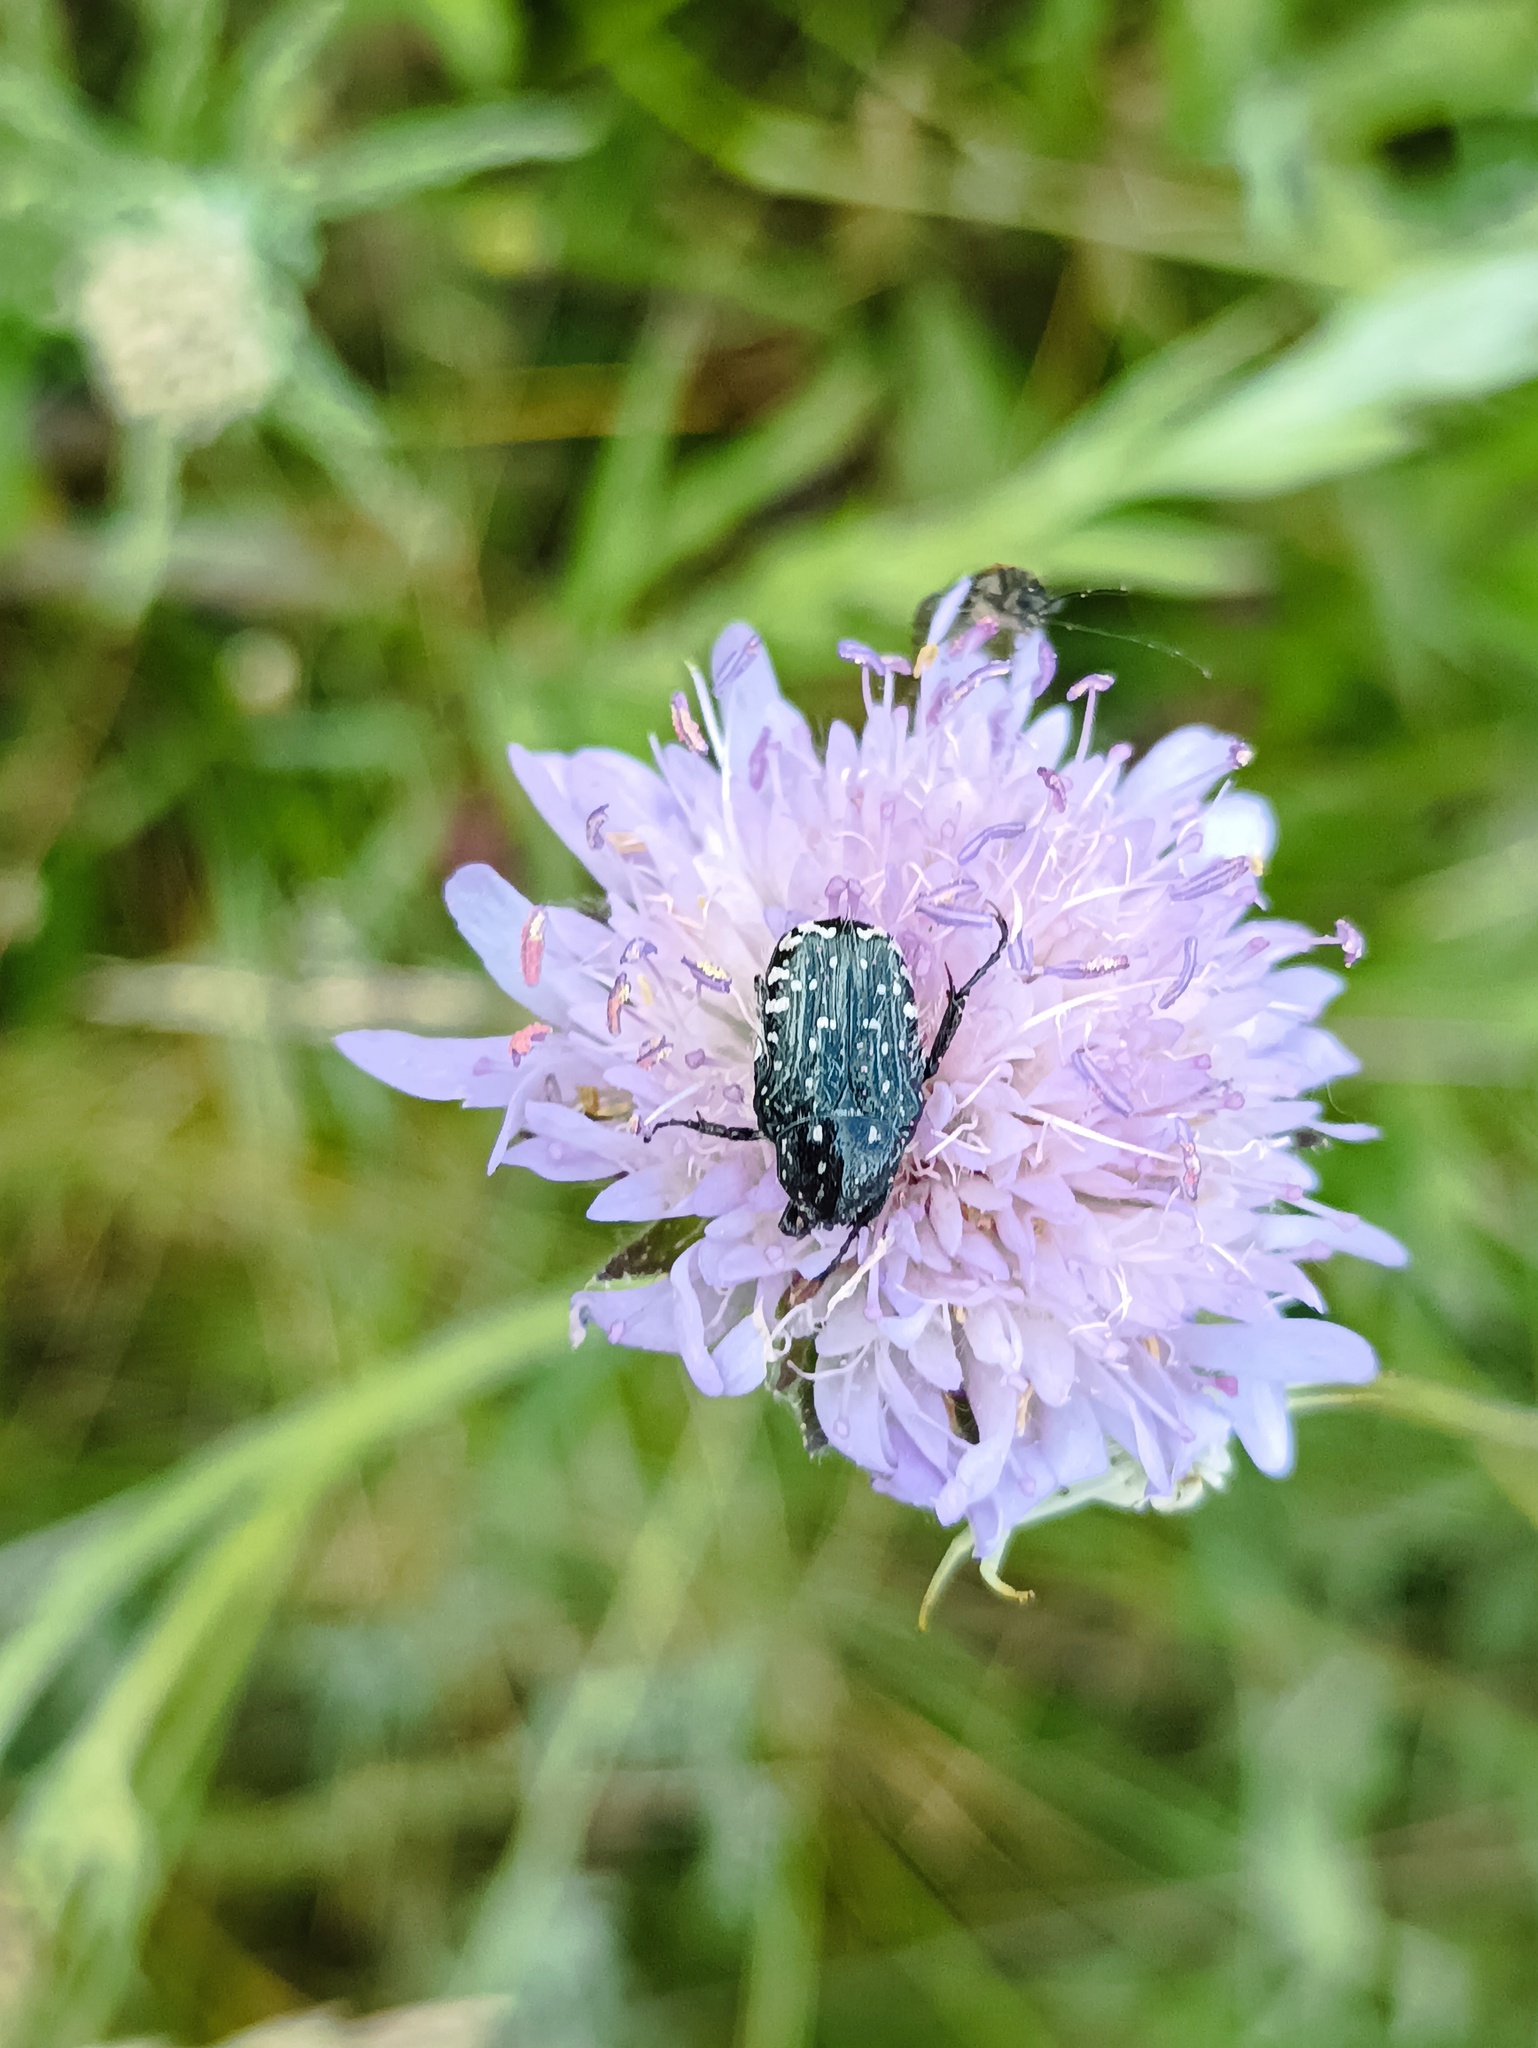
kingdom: Animalia
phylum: Arthropoda
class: Insecta
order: Coleoptera
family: Scarabaeidae
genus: Oxythyrea
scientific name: Oxythyrea funesta
